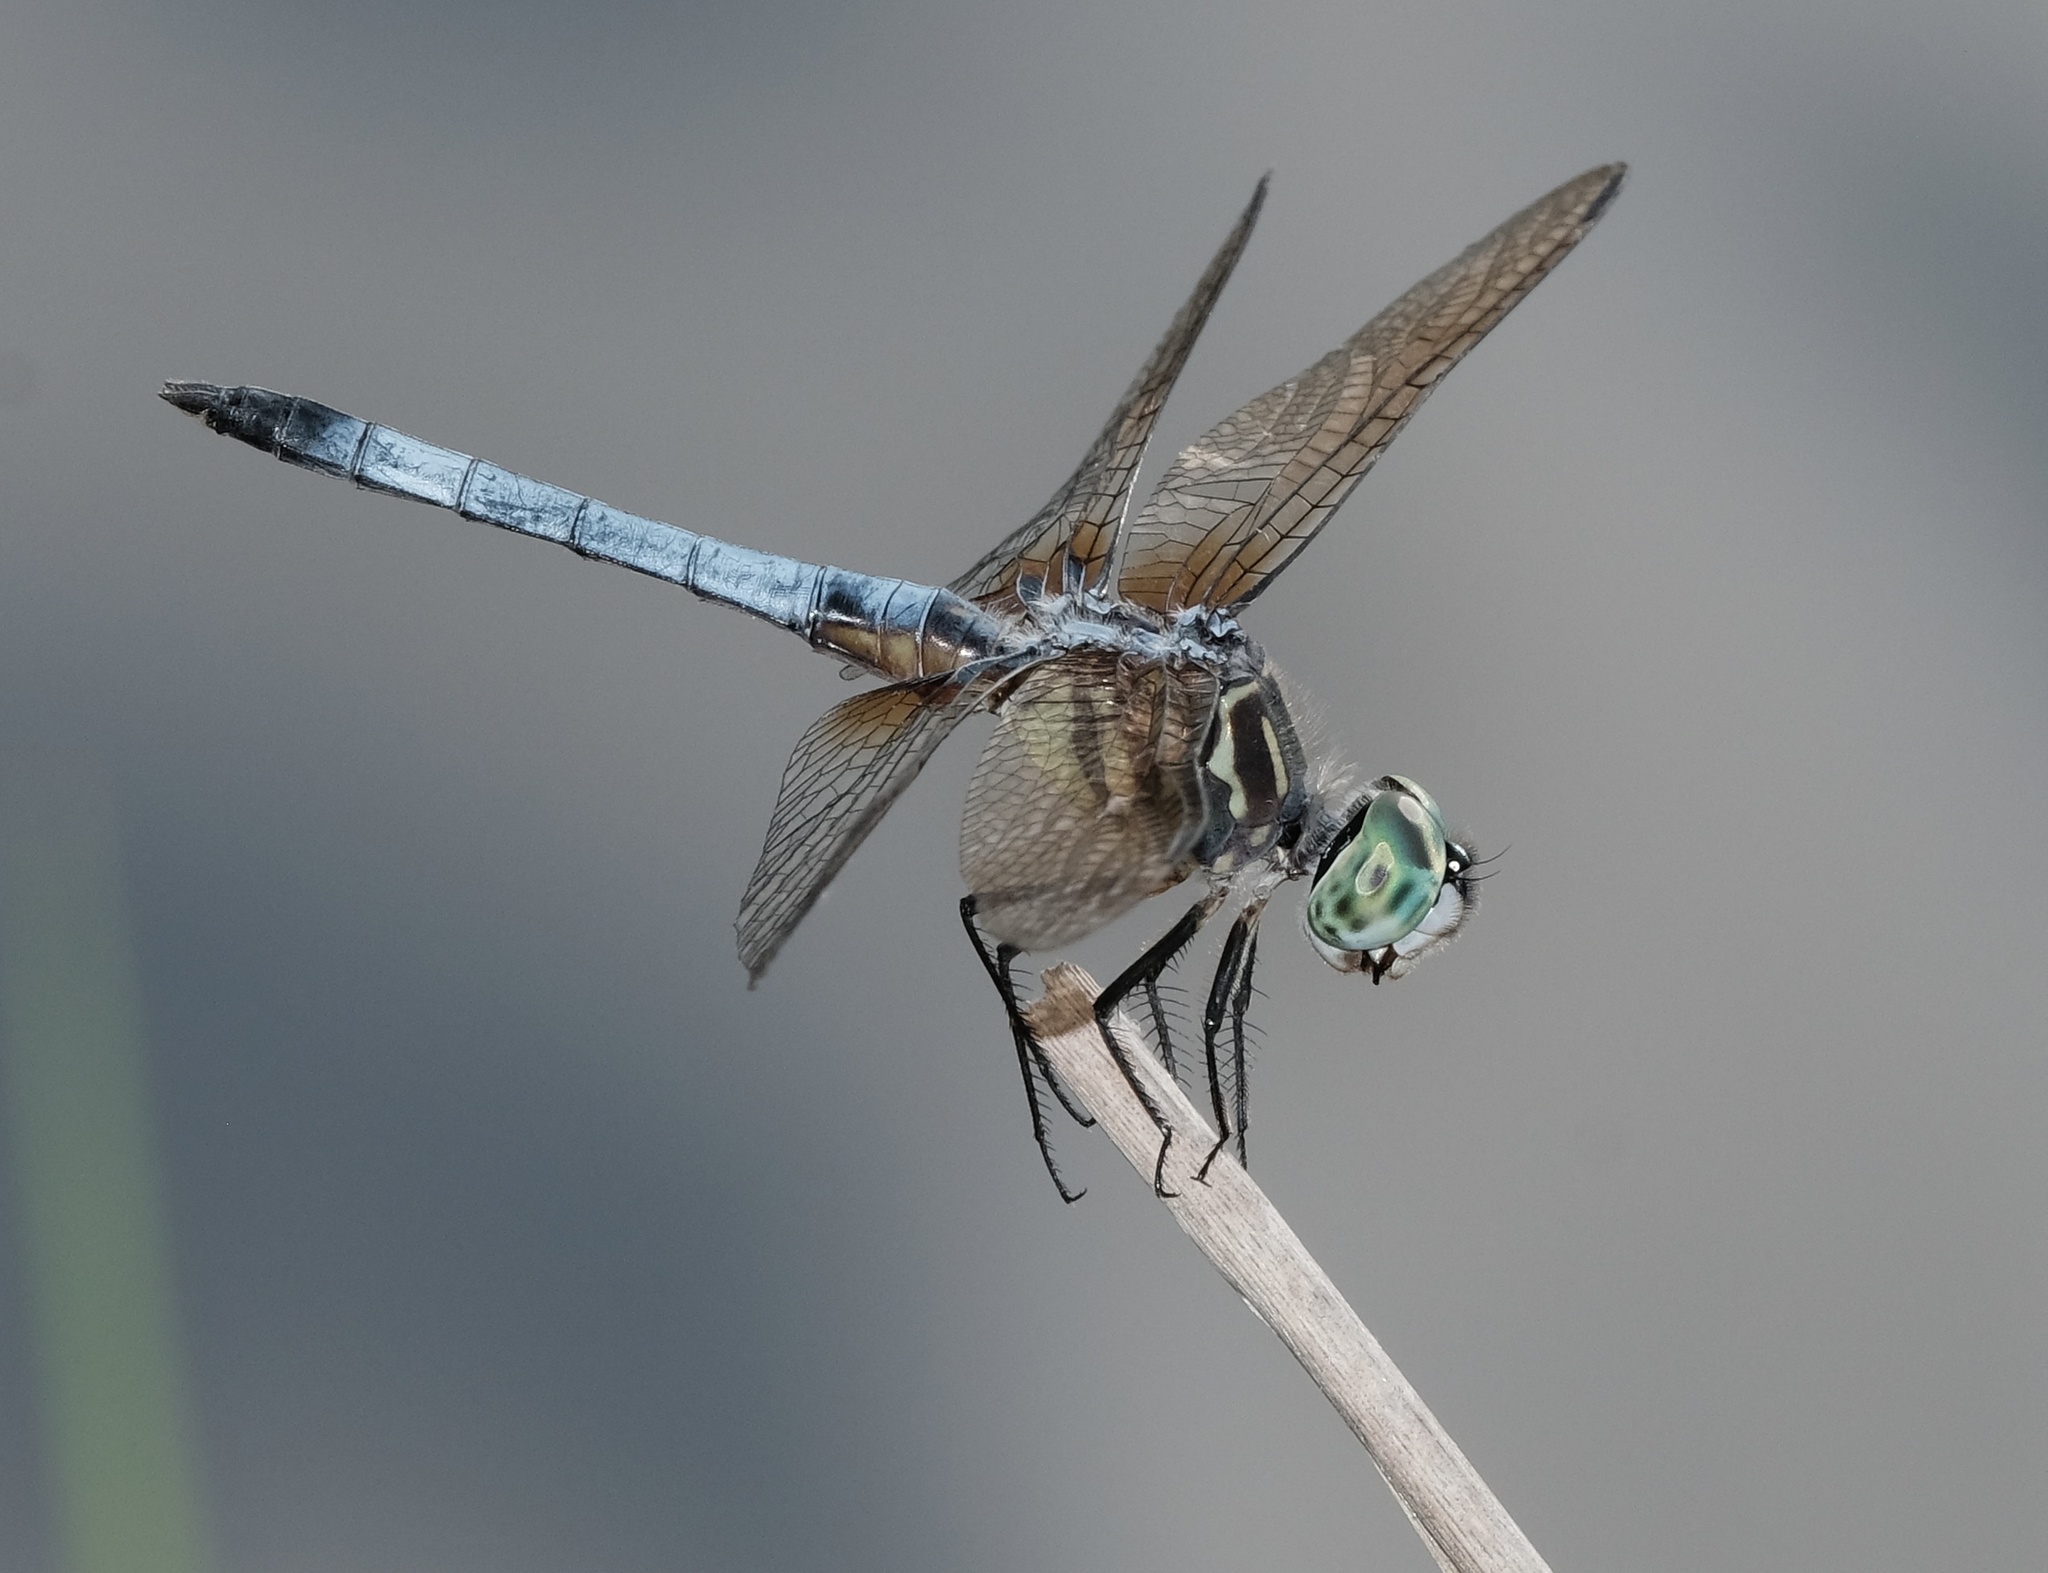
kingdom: Animalia
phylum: Arthropoda
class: Insecta
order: Odonata
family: Libellulidae
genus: Pachydiplax
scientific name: Pachydiplax longipennis
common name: Blue dasher
